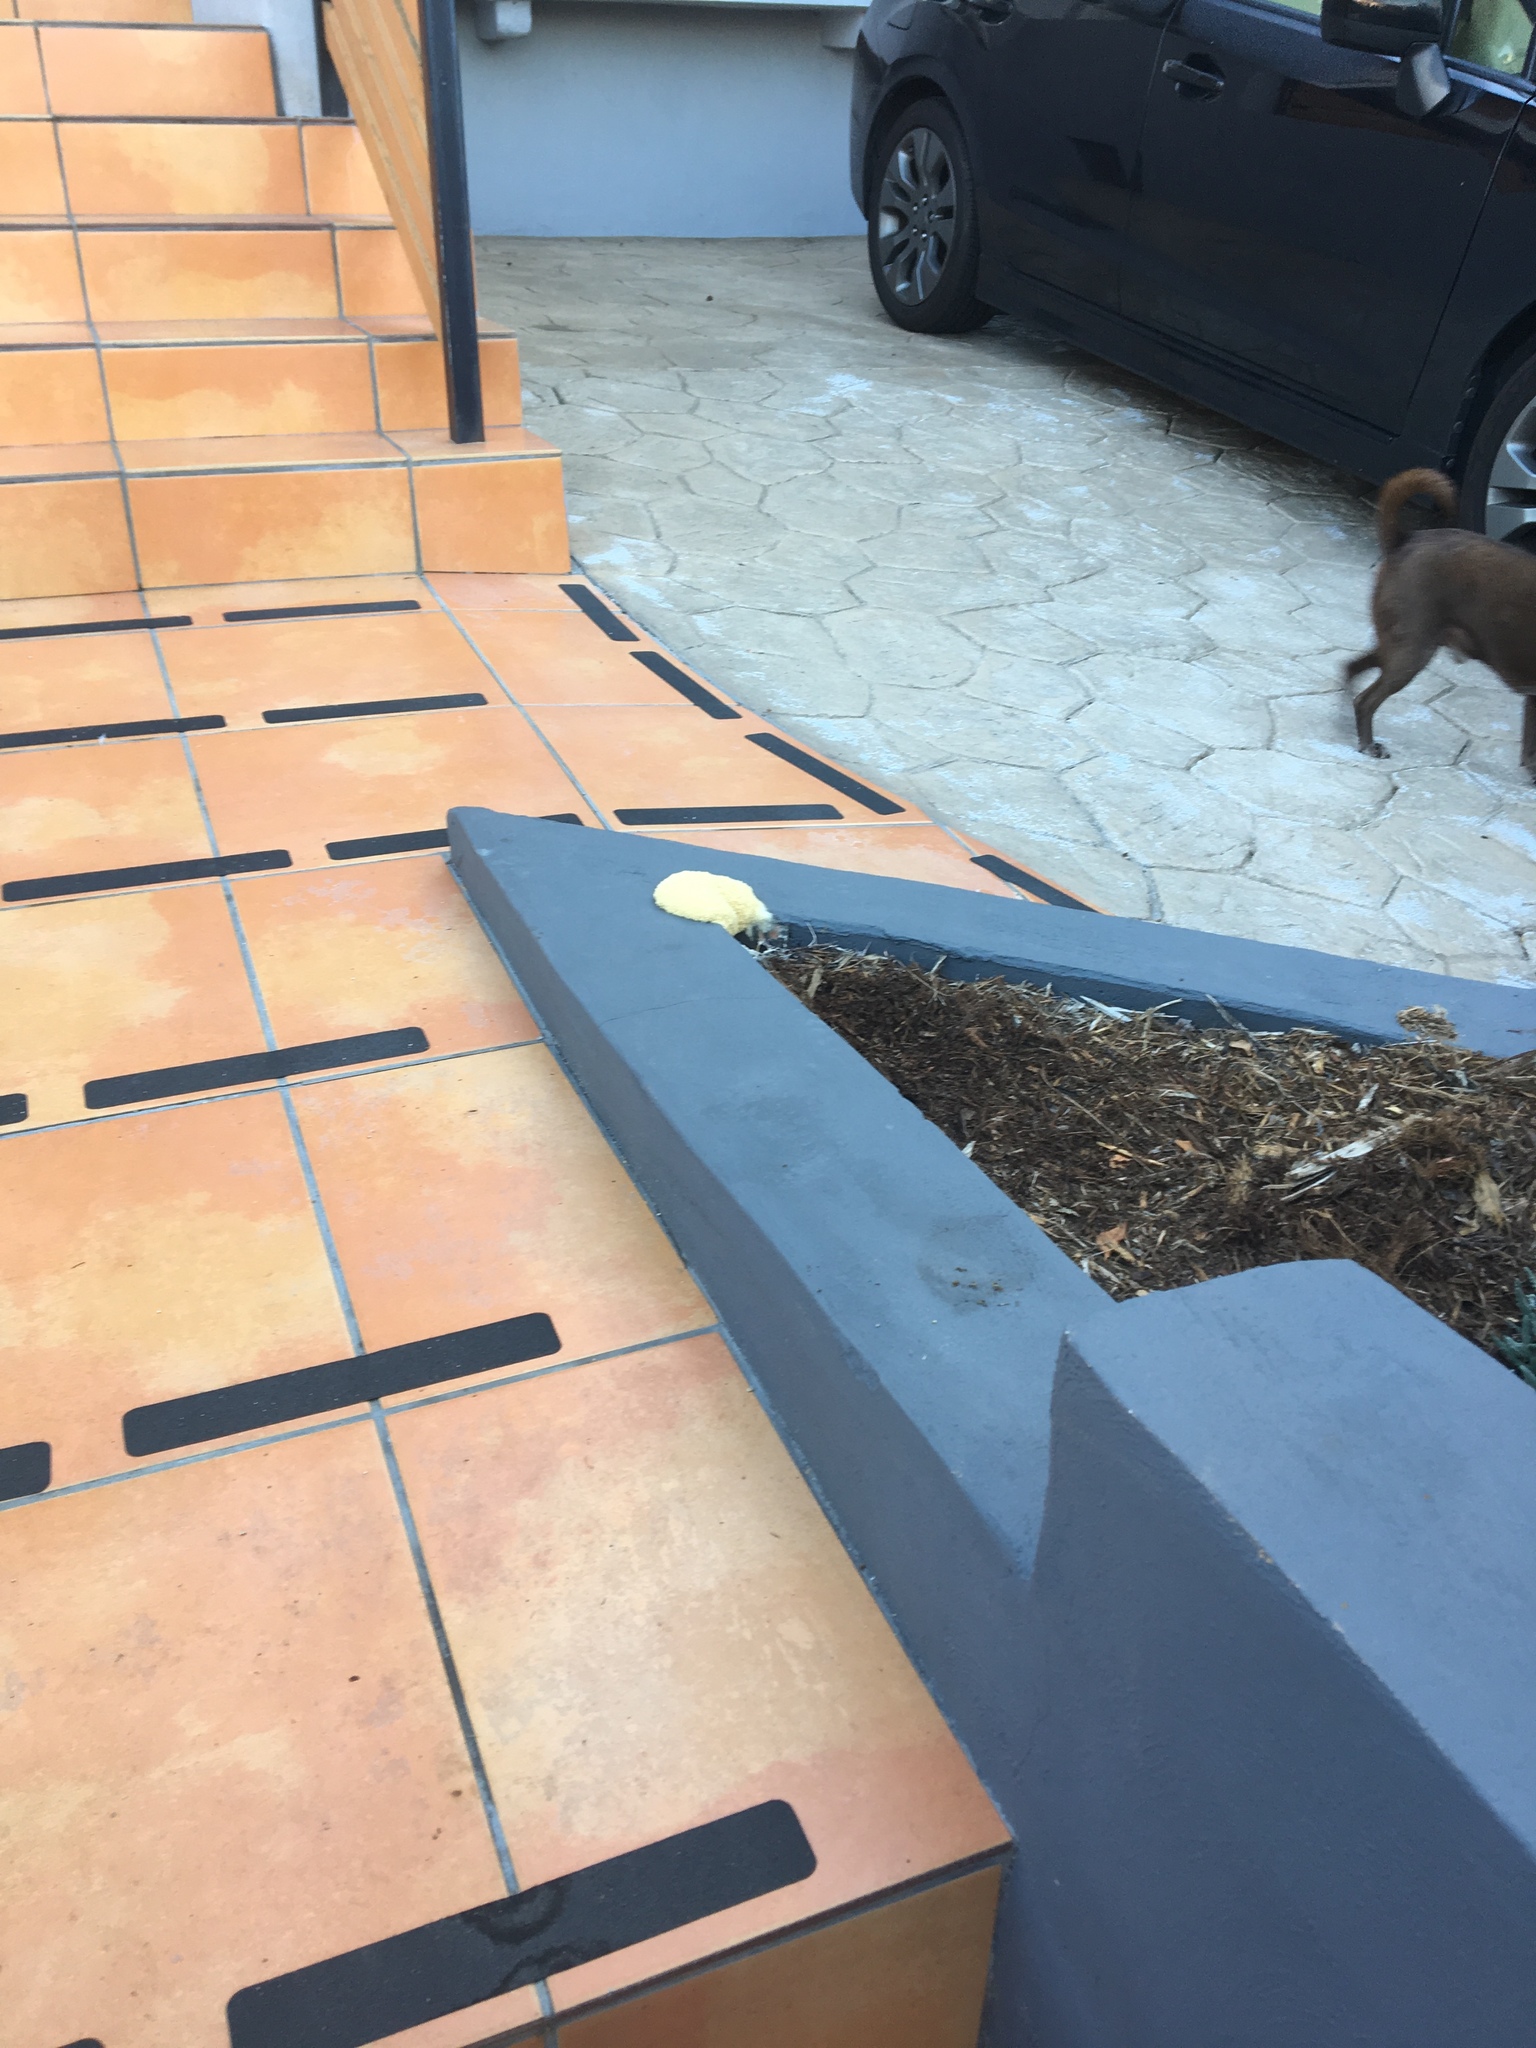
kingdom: Protozoa
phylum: Mycetozoa
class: Myxomycetes
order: Physarales
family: Physaraceae
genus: Fuligo
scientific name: Fuligo septica
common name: Dog vomit slime mold
